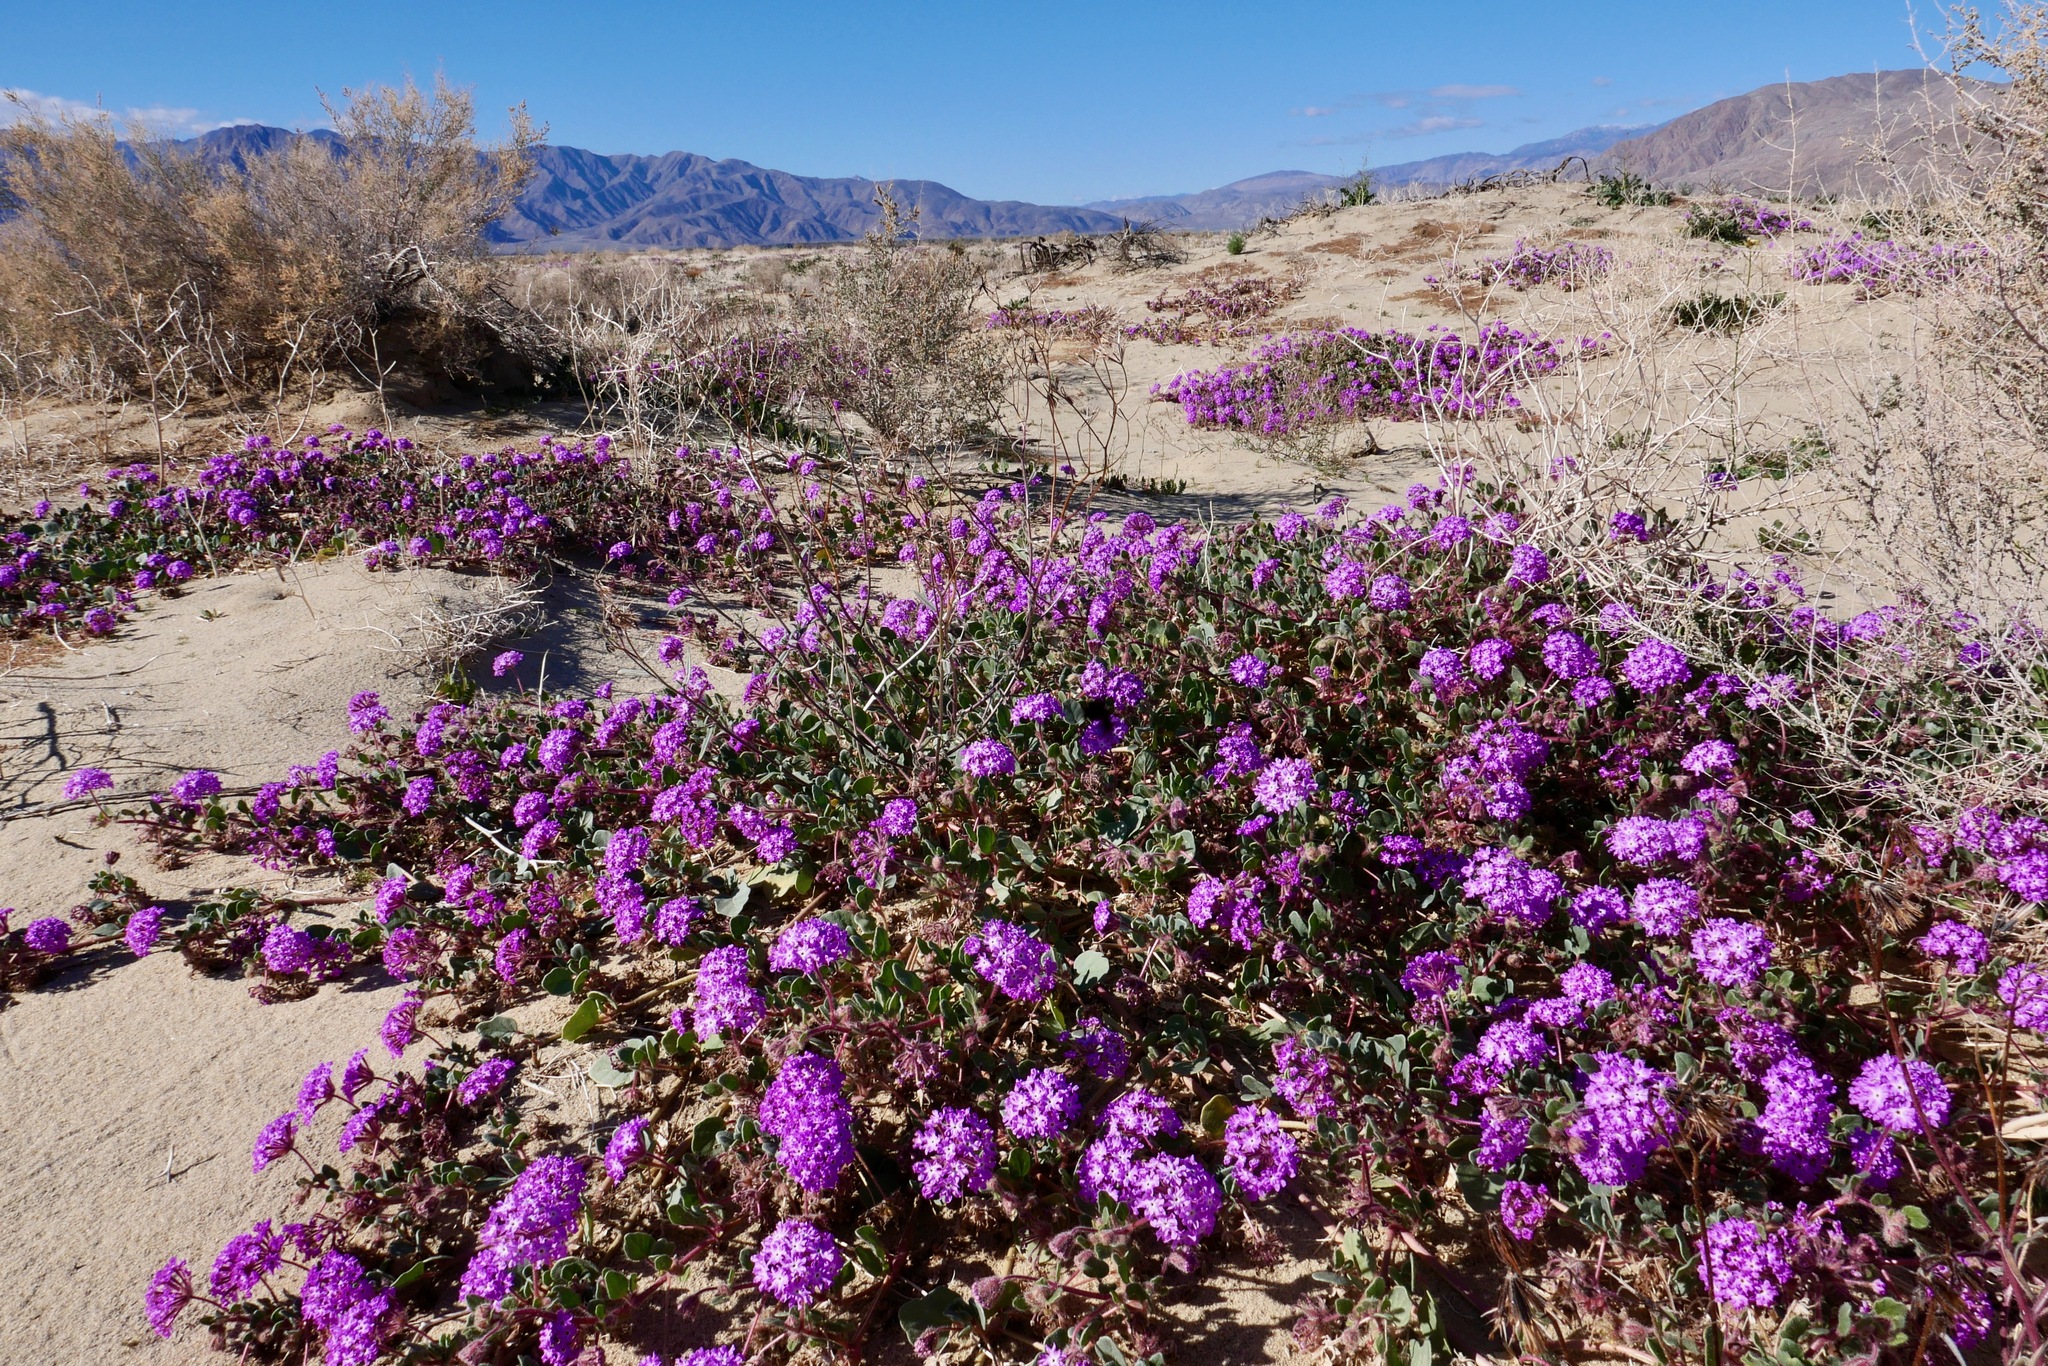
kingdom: Plantae
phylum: Tracheophyta
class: Magnoliopsida
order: Caryophyllales
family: Nyctaginaceae
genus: Abronia
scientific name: Abronia villosa
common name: Desert sand-verbena
